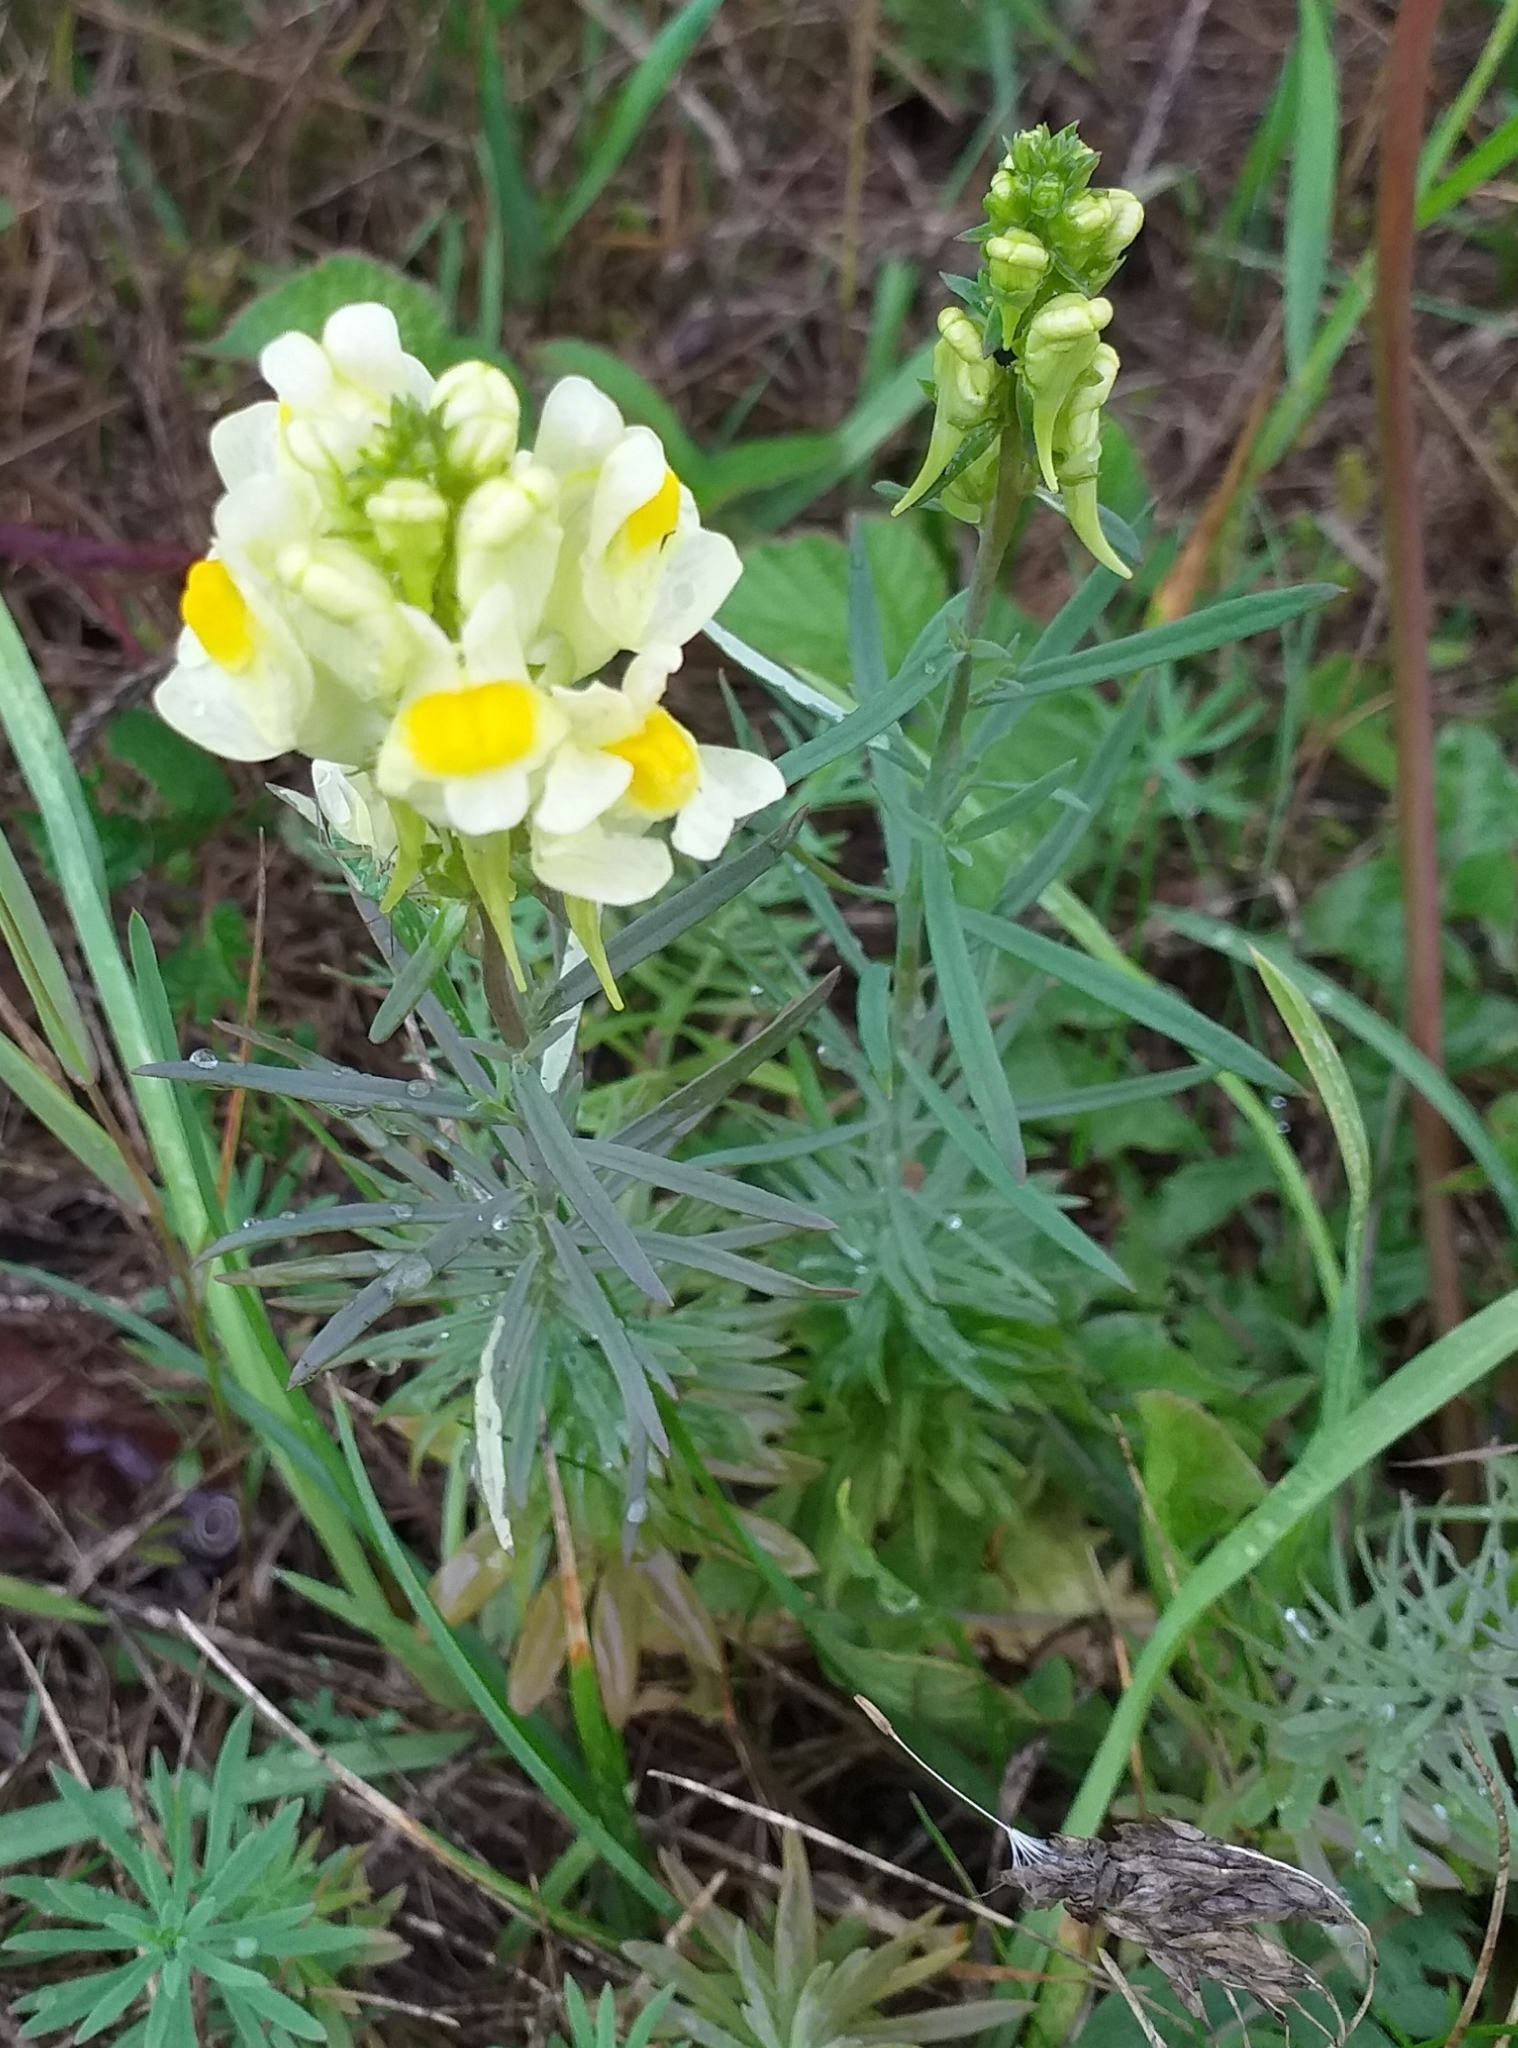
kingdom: Plantae
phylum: Tracheophyta
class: Magnoliopsida
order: Lamiales
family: Plantaginaceae
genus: Linaria
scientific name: Linaria vulgaris
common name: Butter and eggs
